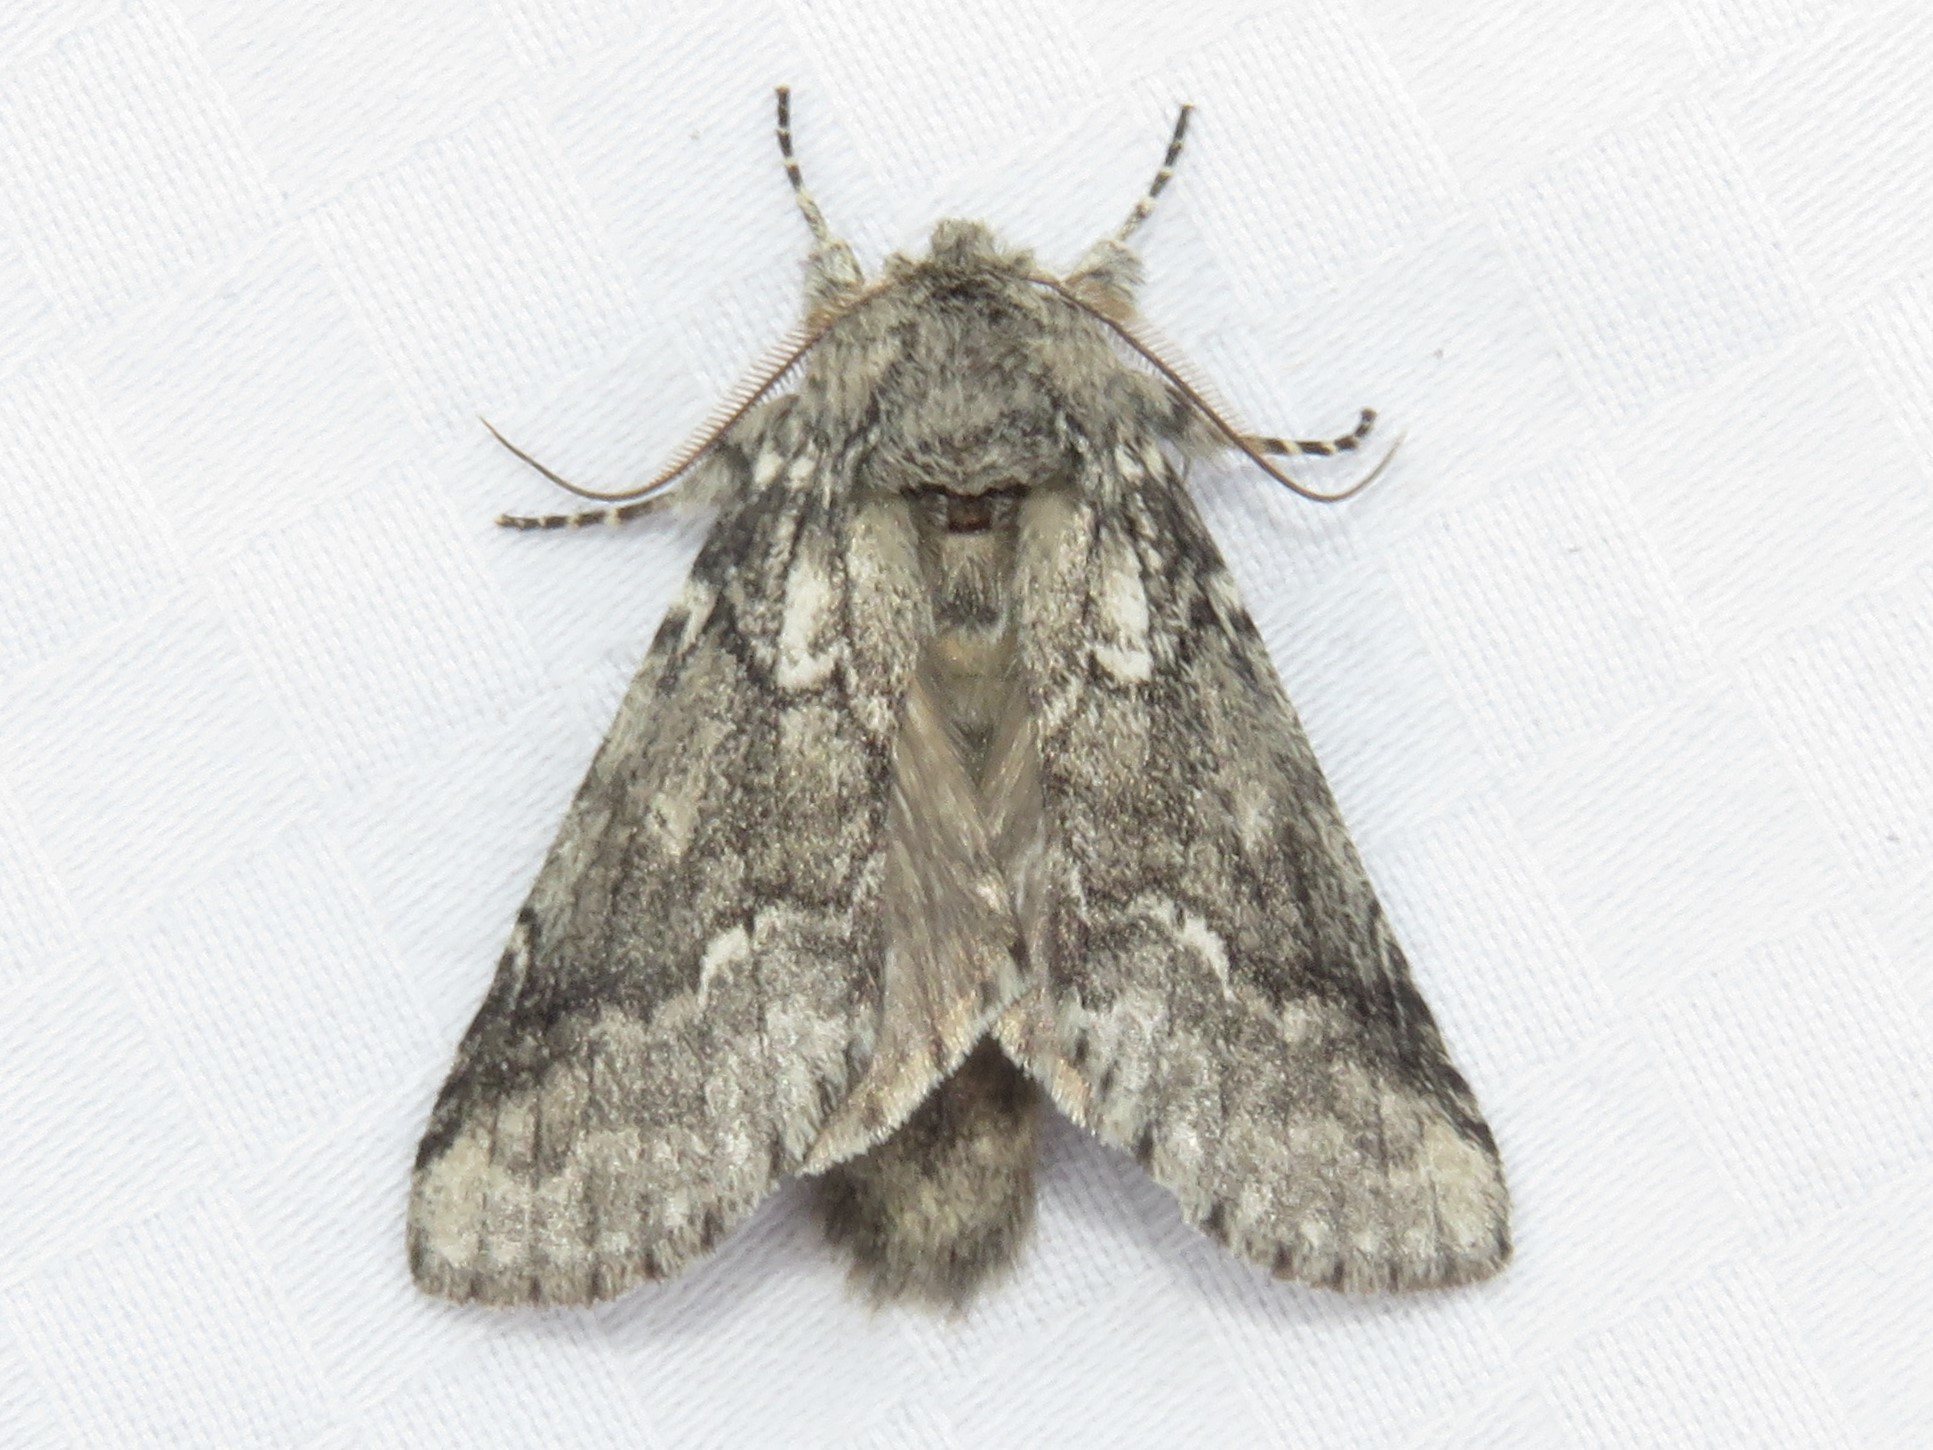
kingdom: Animalia
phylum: Arthropoda
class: Insecta
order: Lepidoptera
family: Notodontidae
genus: Lochmaeus
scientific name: Lochmaeus bilineata
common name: Double-lined prominent
